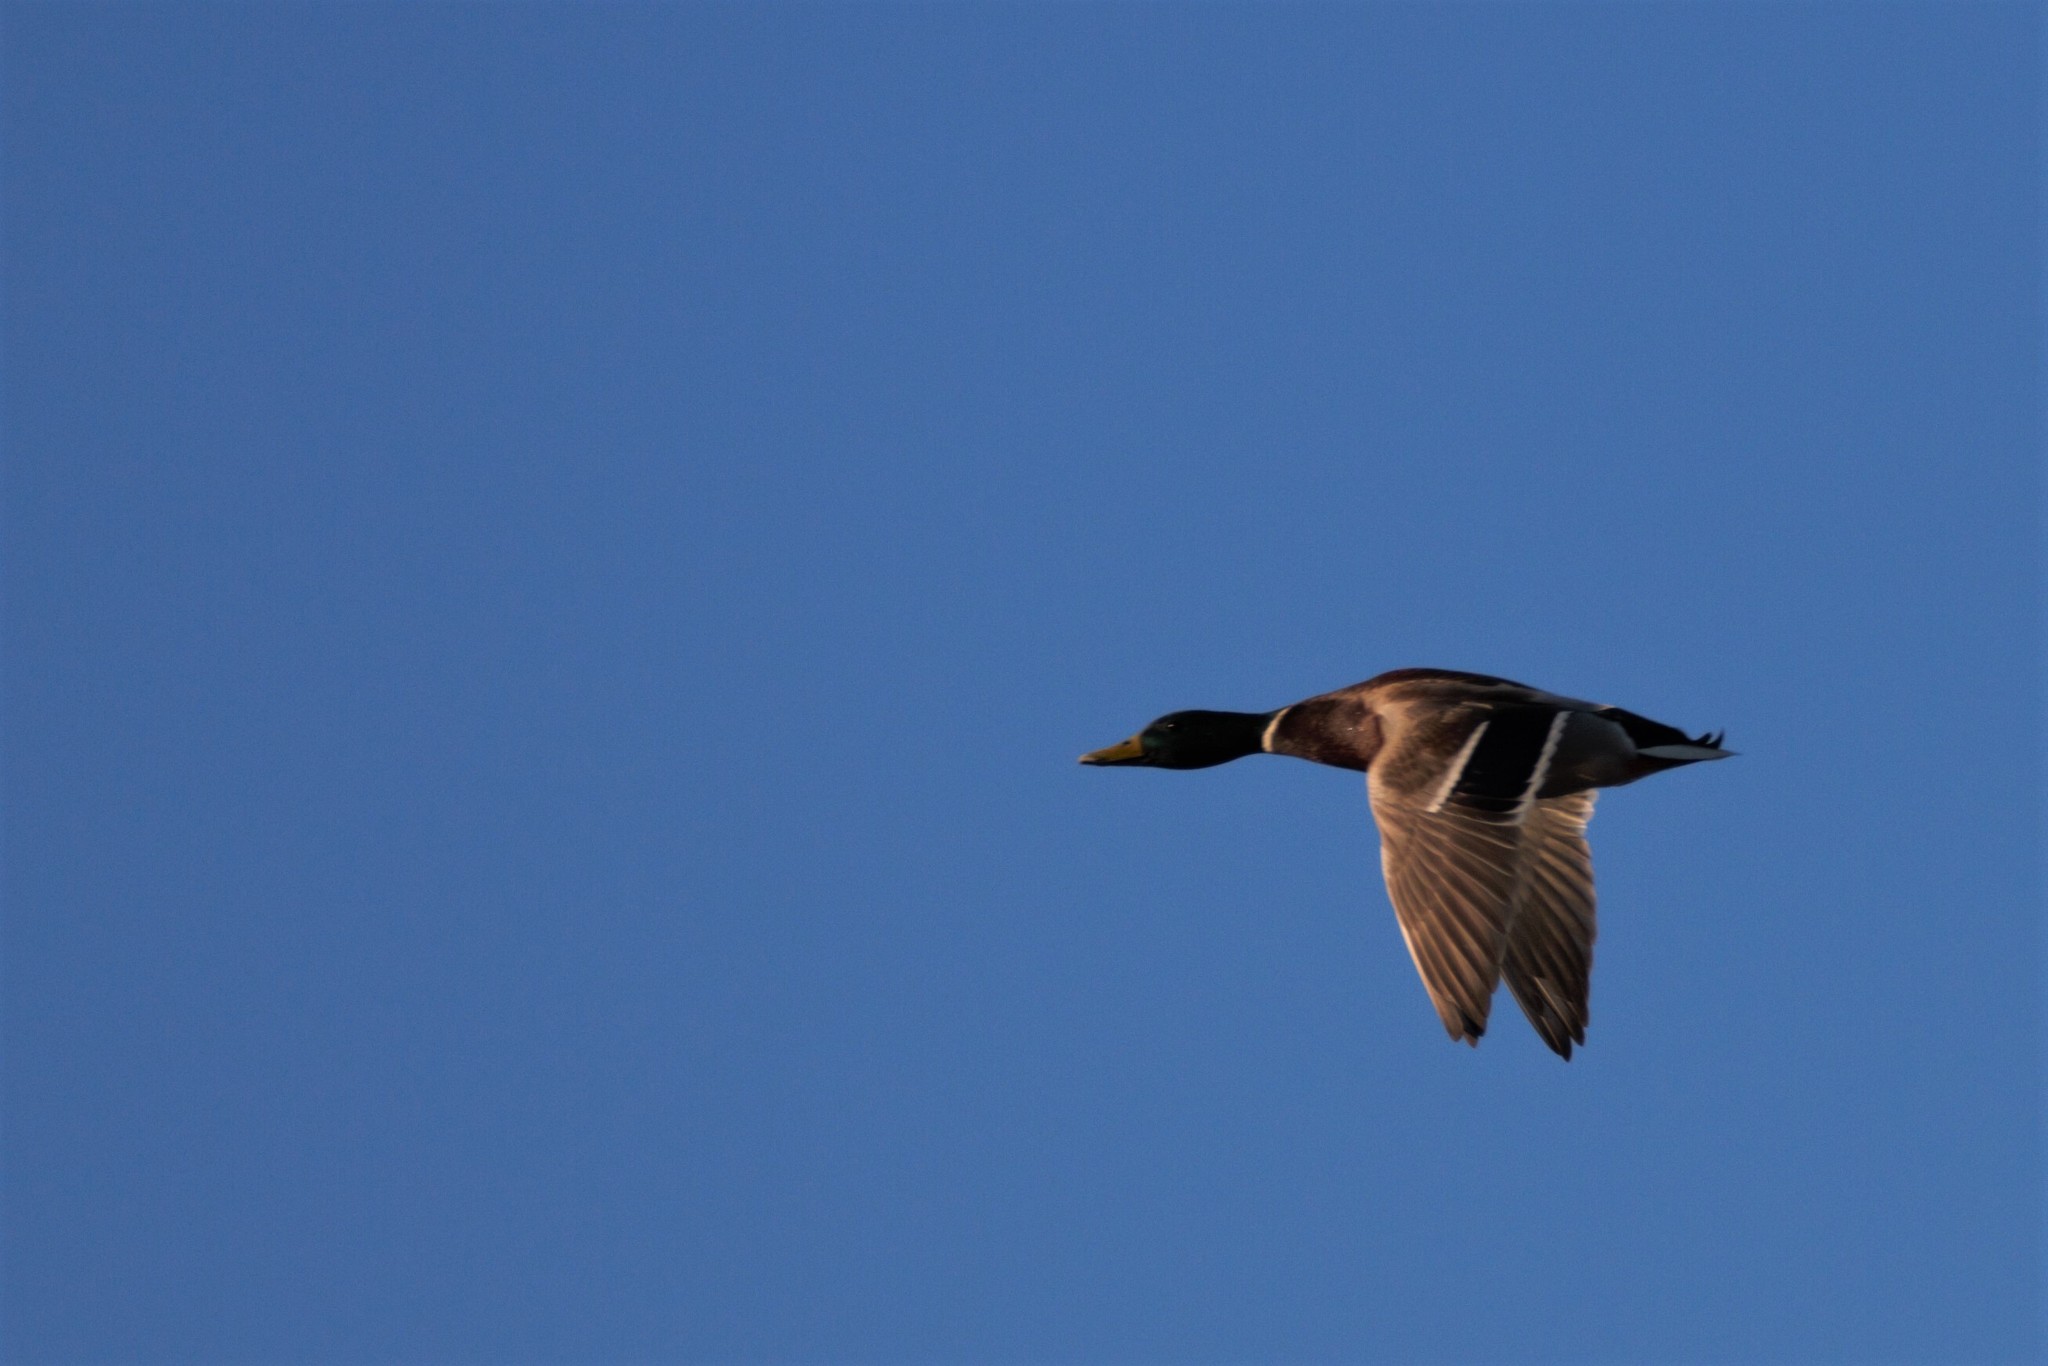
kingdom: Animalia
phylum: Chordata
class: Aves
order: Anseriformes
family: Anatidae
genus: Anas
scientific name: Anas platyrhynchos
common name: Mallard
